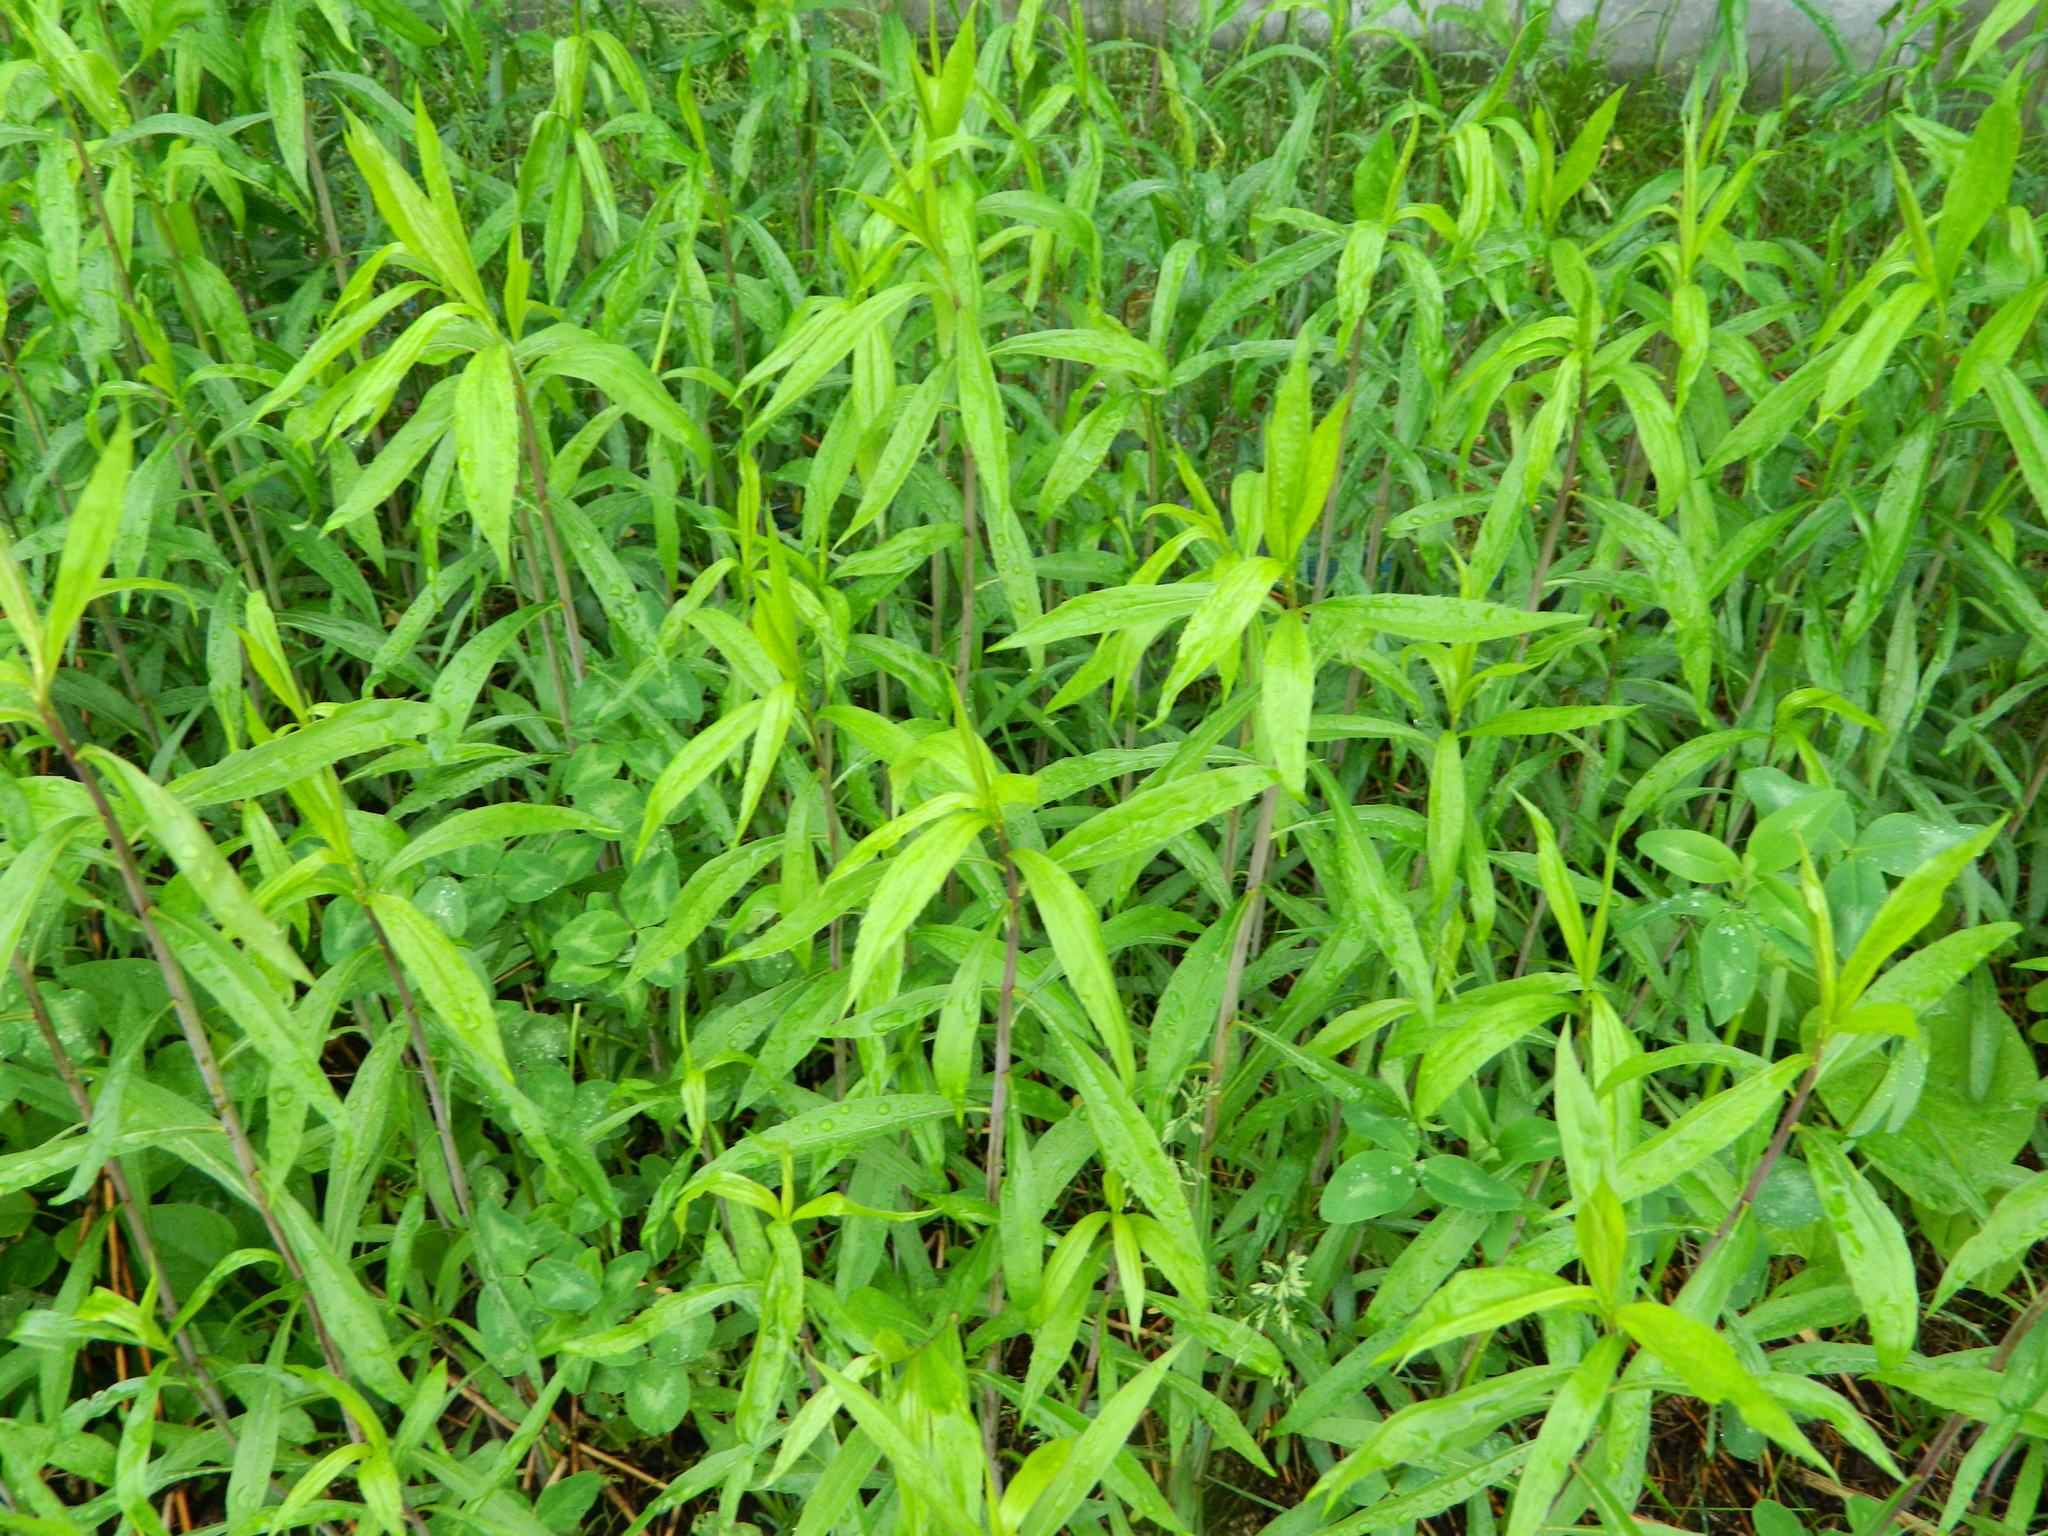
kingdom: Plantae
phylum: Tracheophyta
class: Magnoliopsida
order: Asterales
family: Asteraceae
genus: Solidago
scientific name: Solidago gigantea
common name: Giant goldenrod
